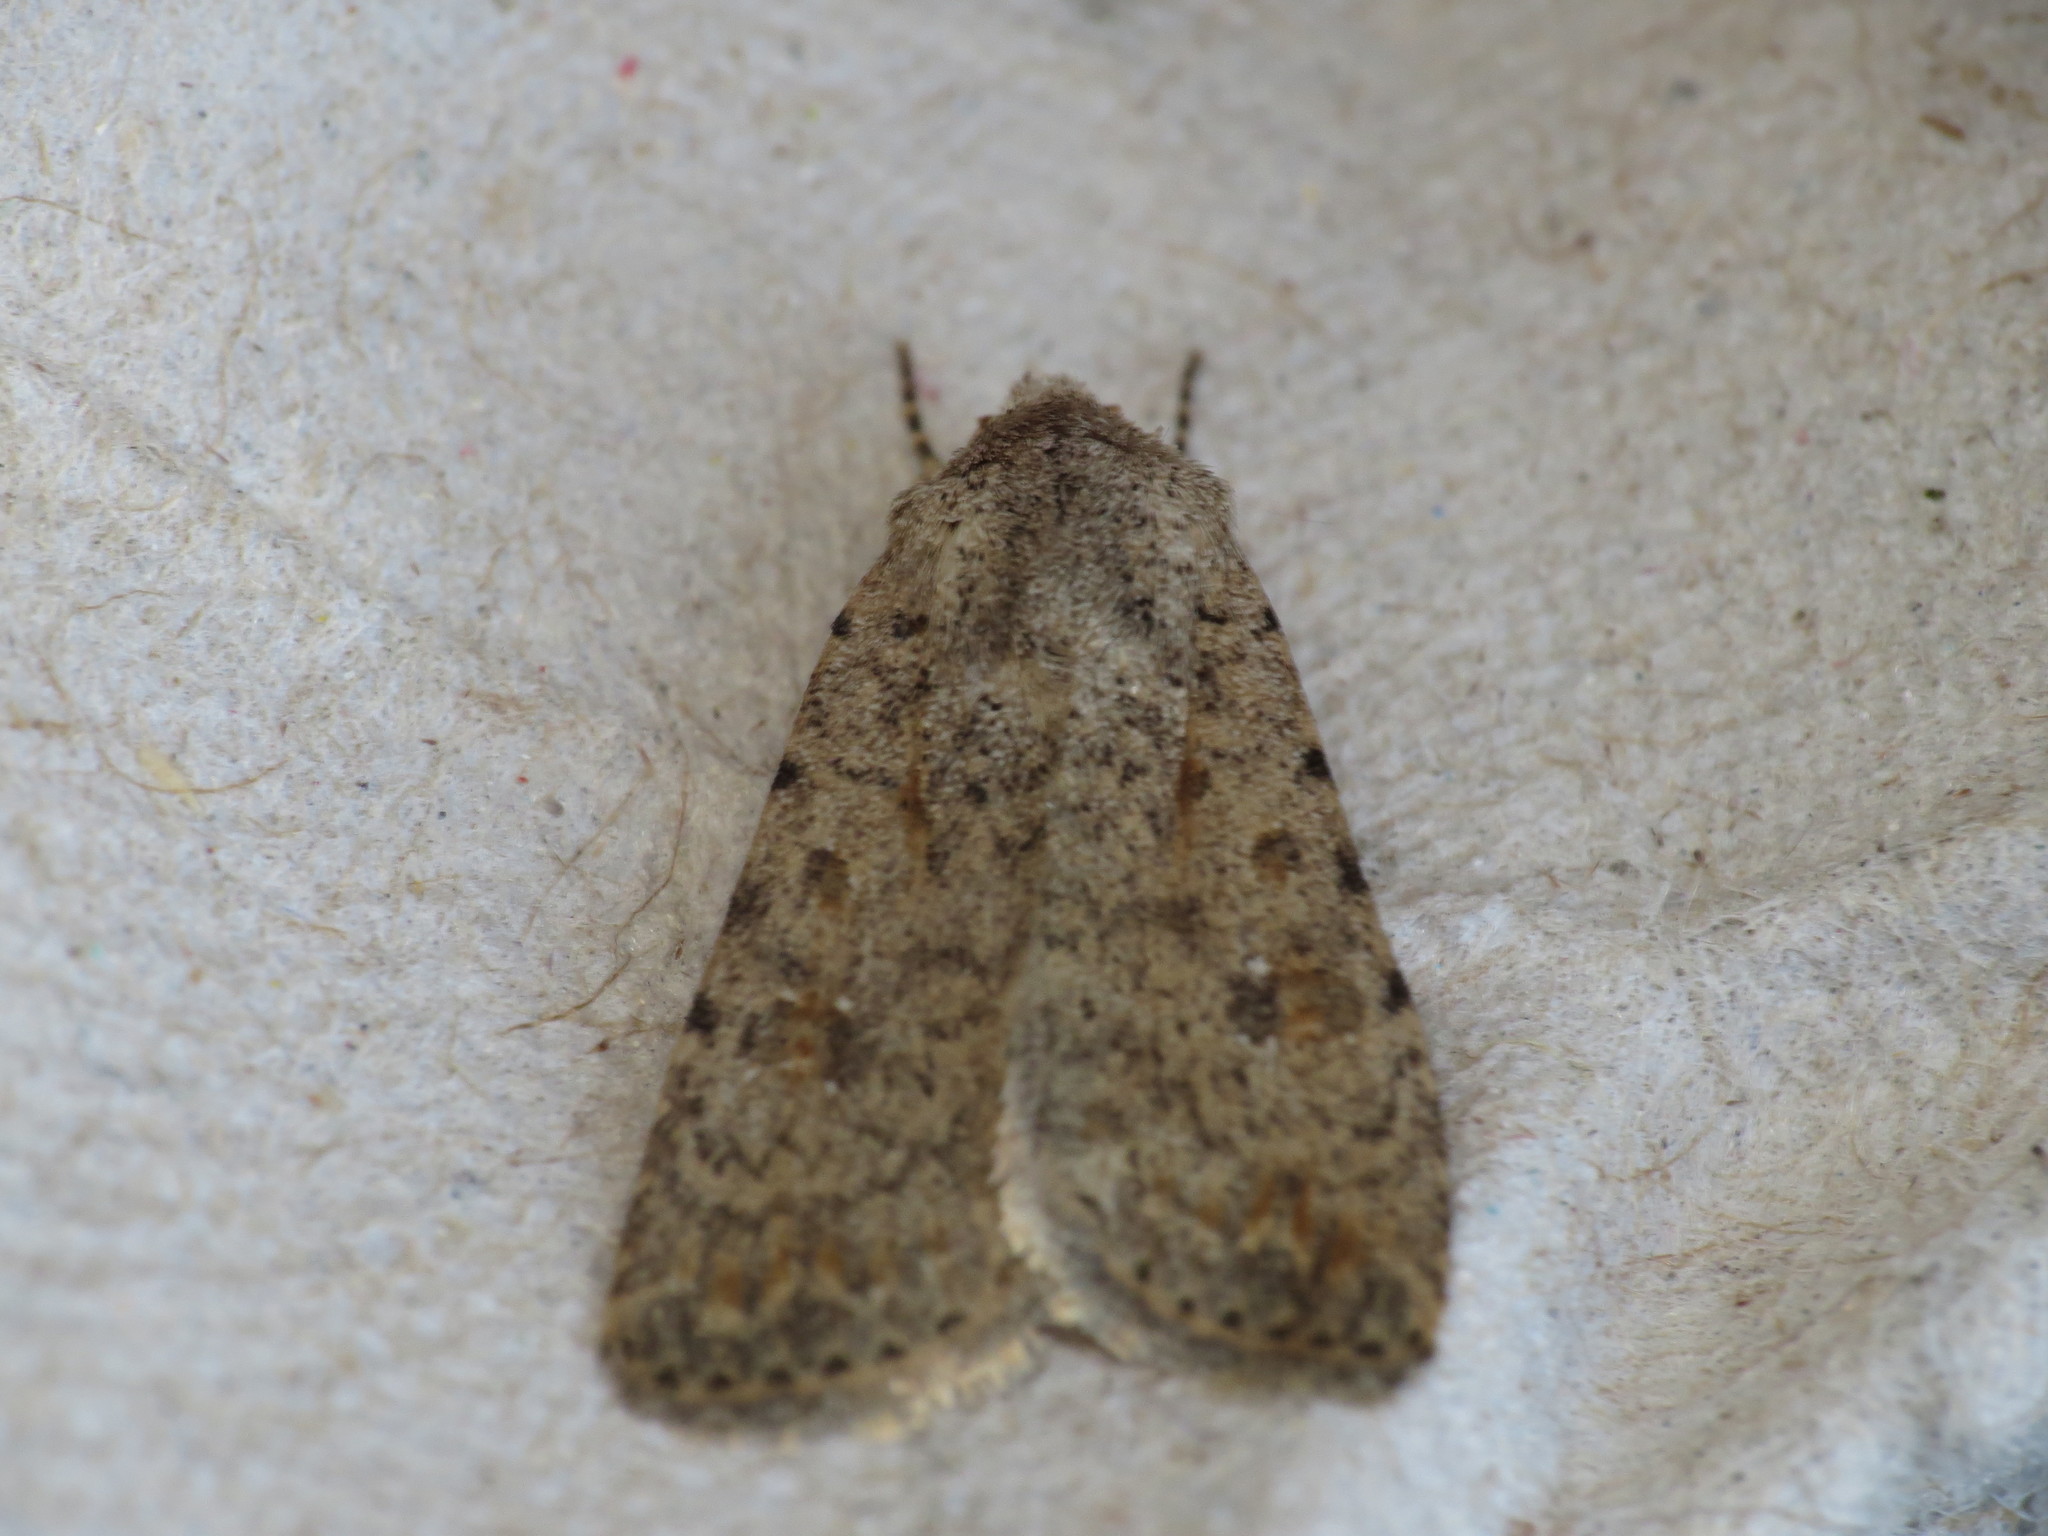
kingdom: Animalia
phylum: Arthropoda
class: Insecta
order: Lepidoptera
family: Noctuidae
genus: Caradrina
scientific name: Caradrina clavipalpis
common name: Pale mottled willow
